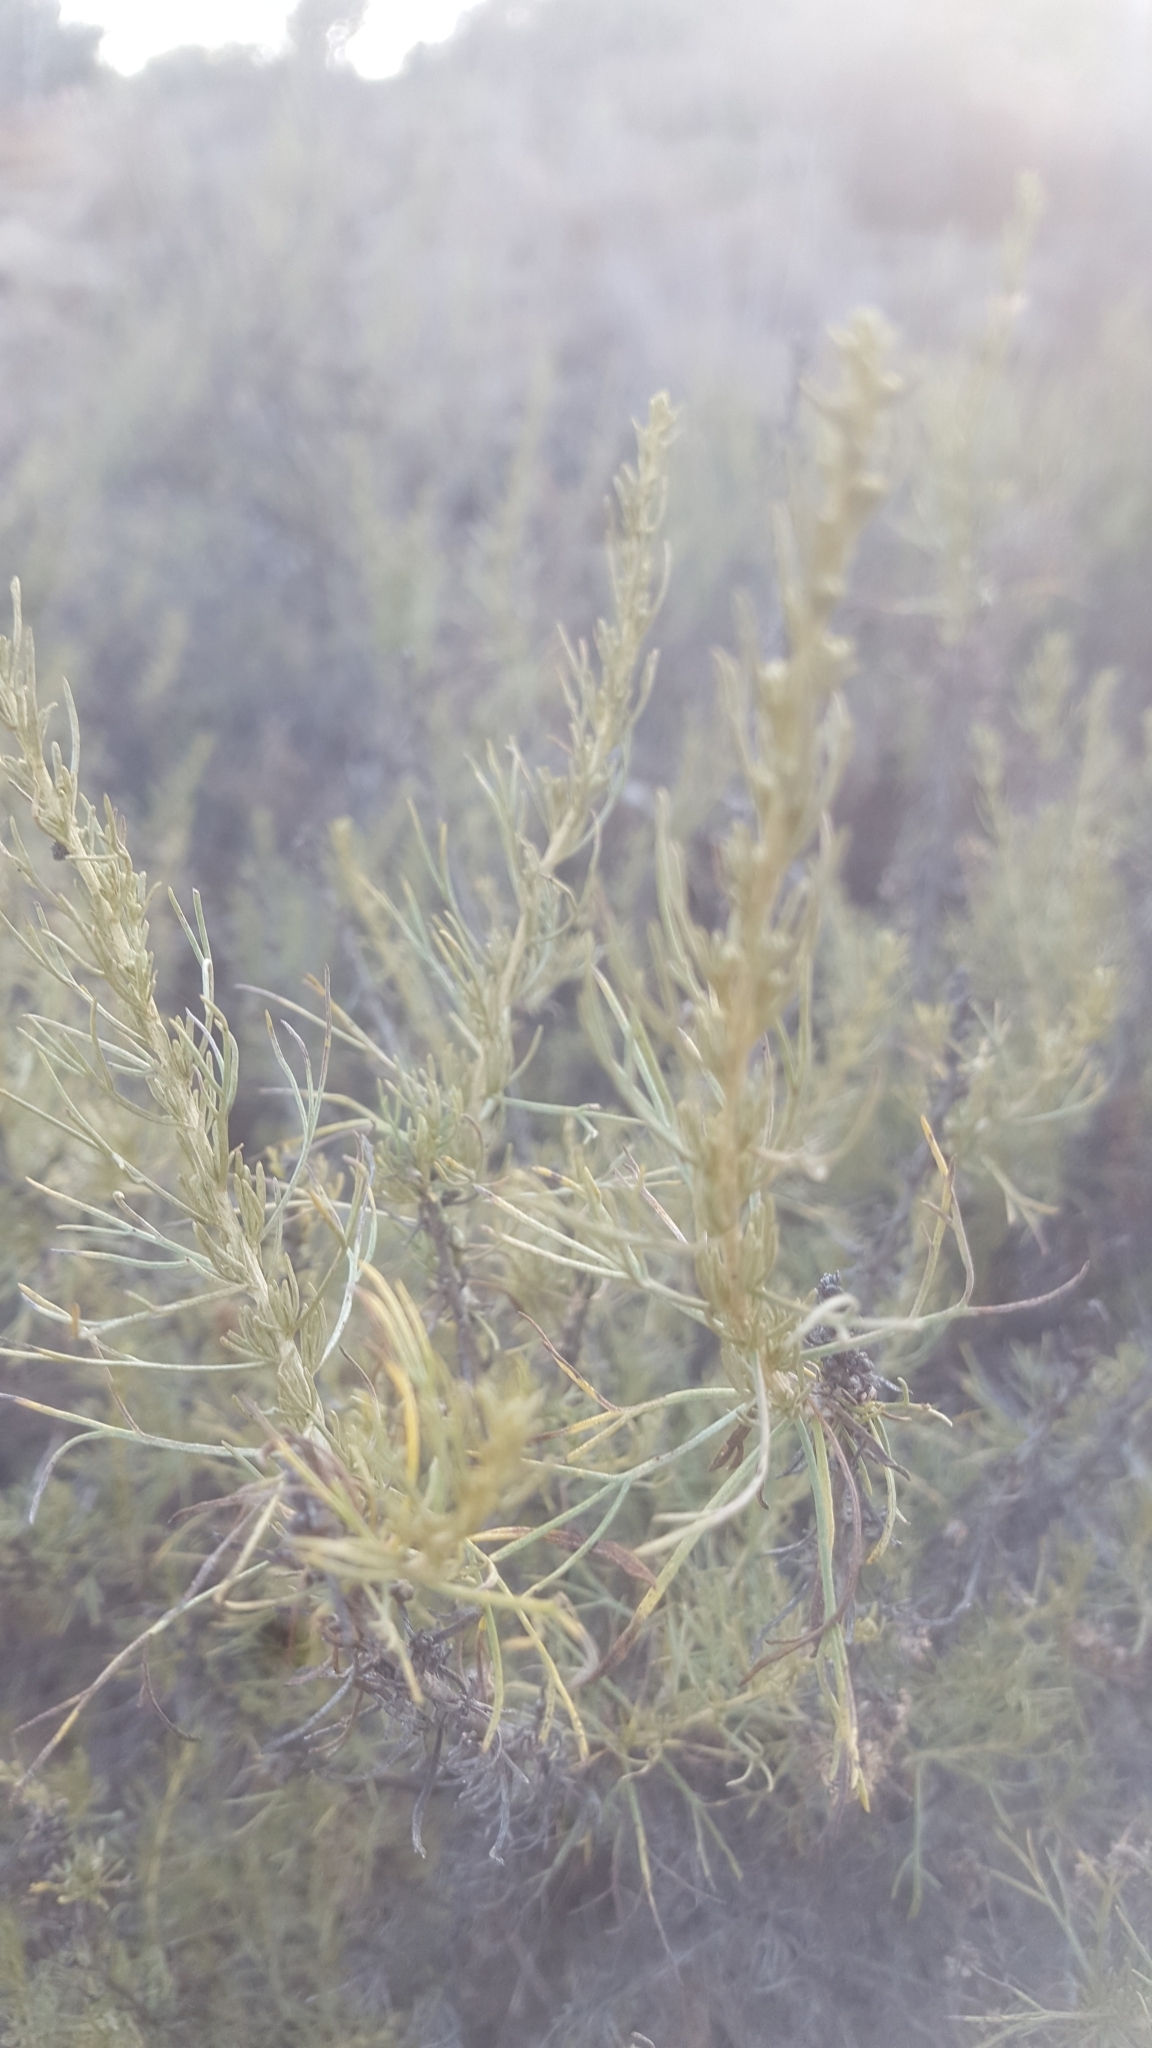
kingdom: Plantae
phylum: Tracheophyta
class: Magnoliopsida
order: Asterales
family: Asteraceae
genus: Artemisia
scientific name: Artemisia californica
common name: California sagebrush
